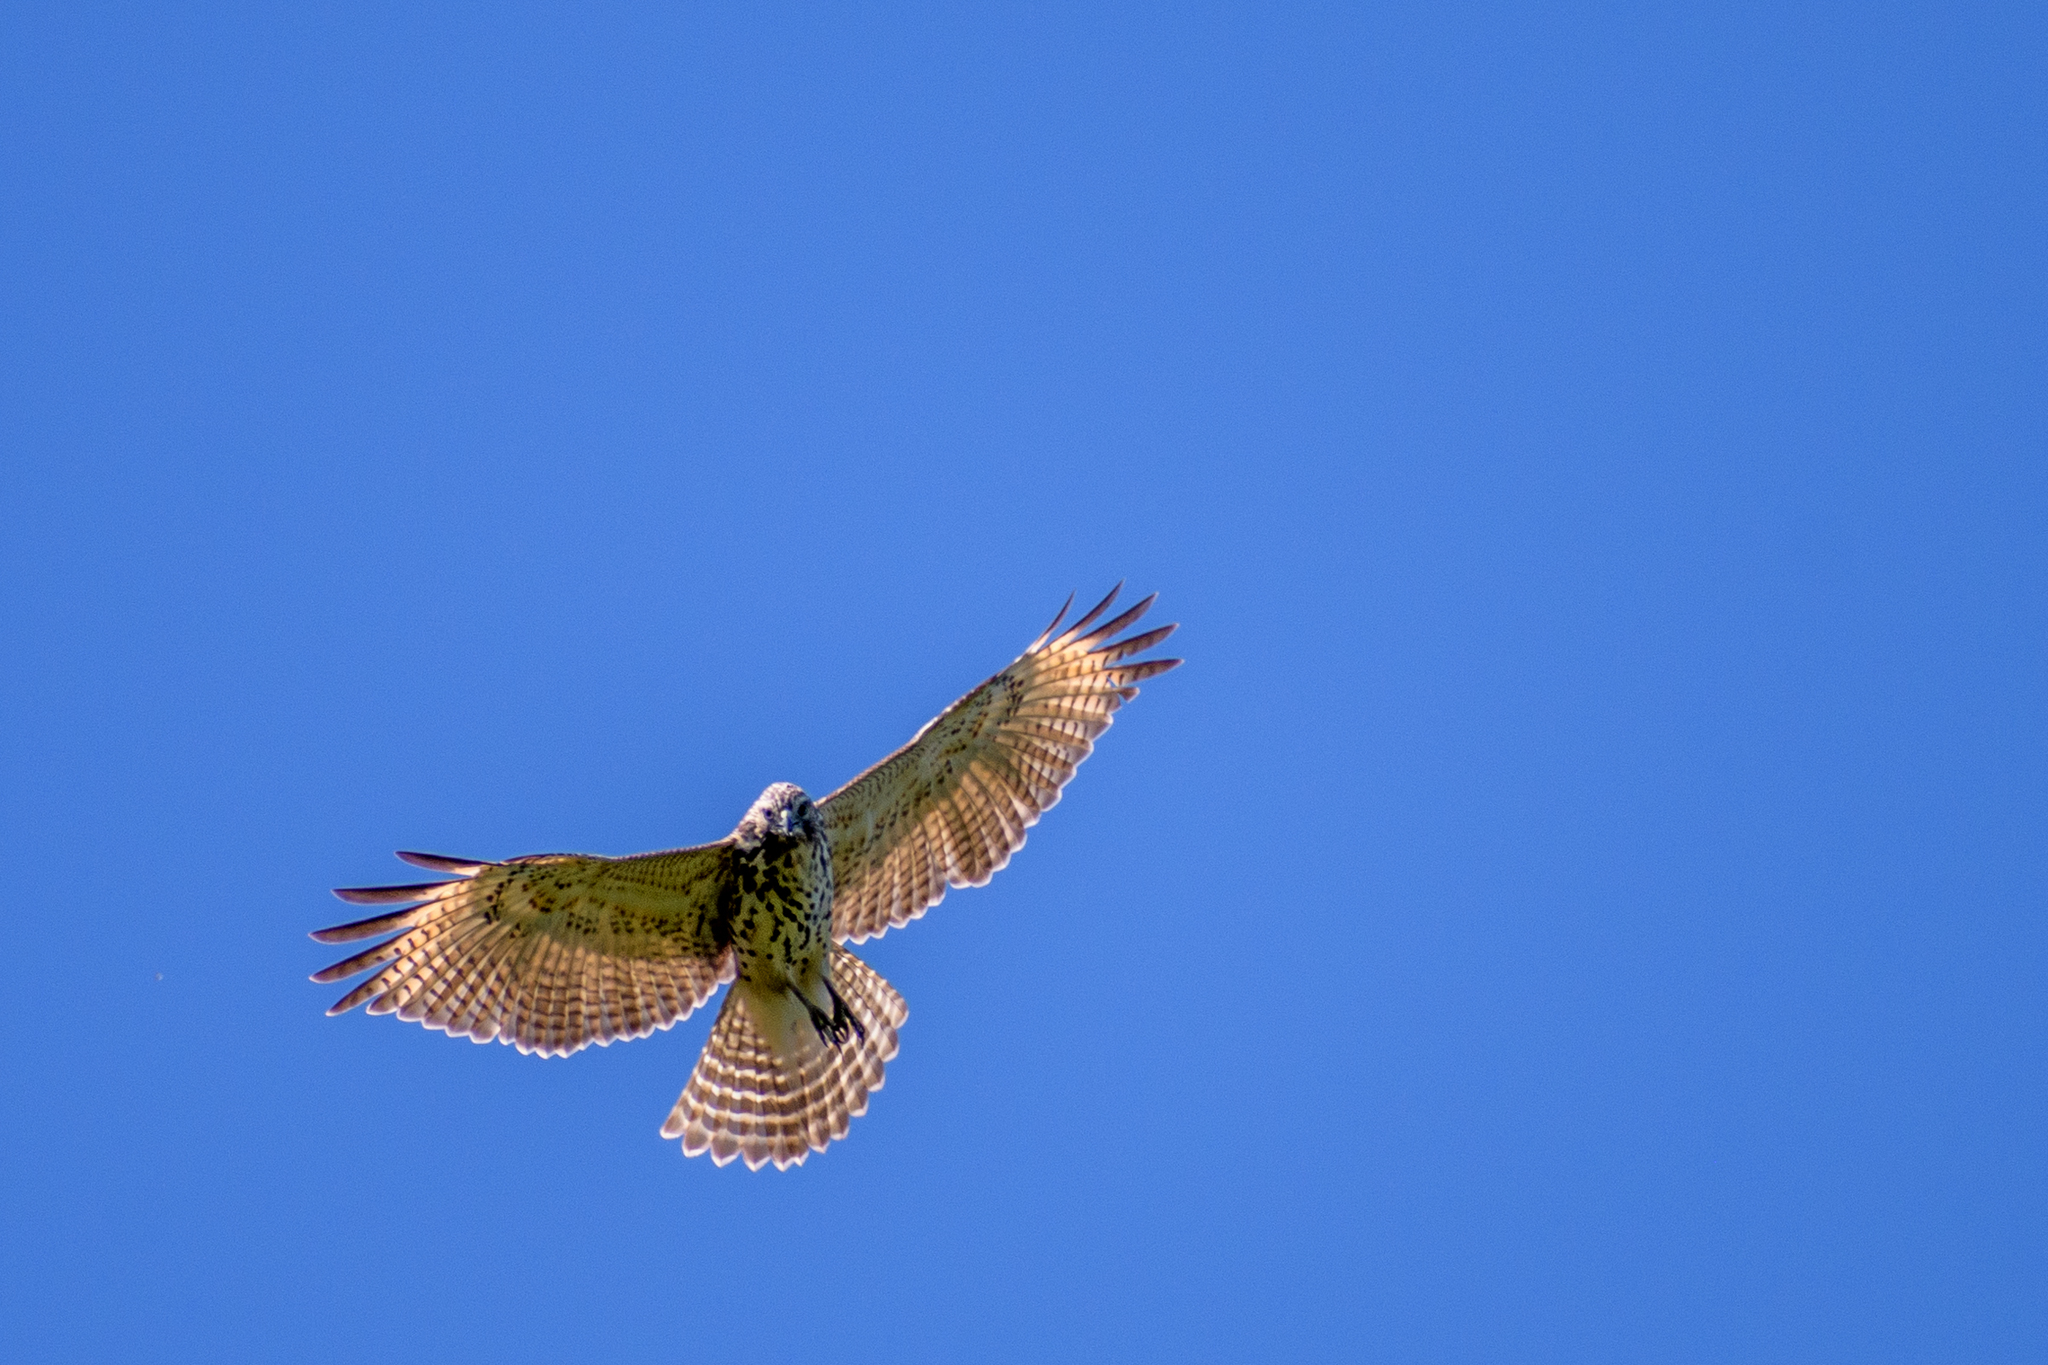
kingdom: Animalia
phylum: Chordata
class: Aves
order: Accipitriformes
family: Accipitridae
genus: Buteo
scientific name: Buteo lineatus
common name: Red-shouldered hawk
